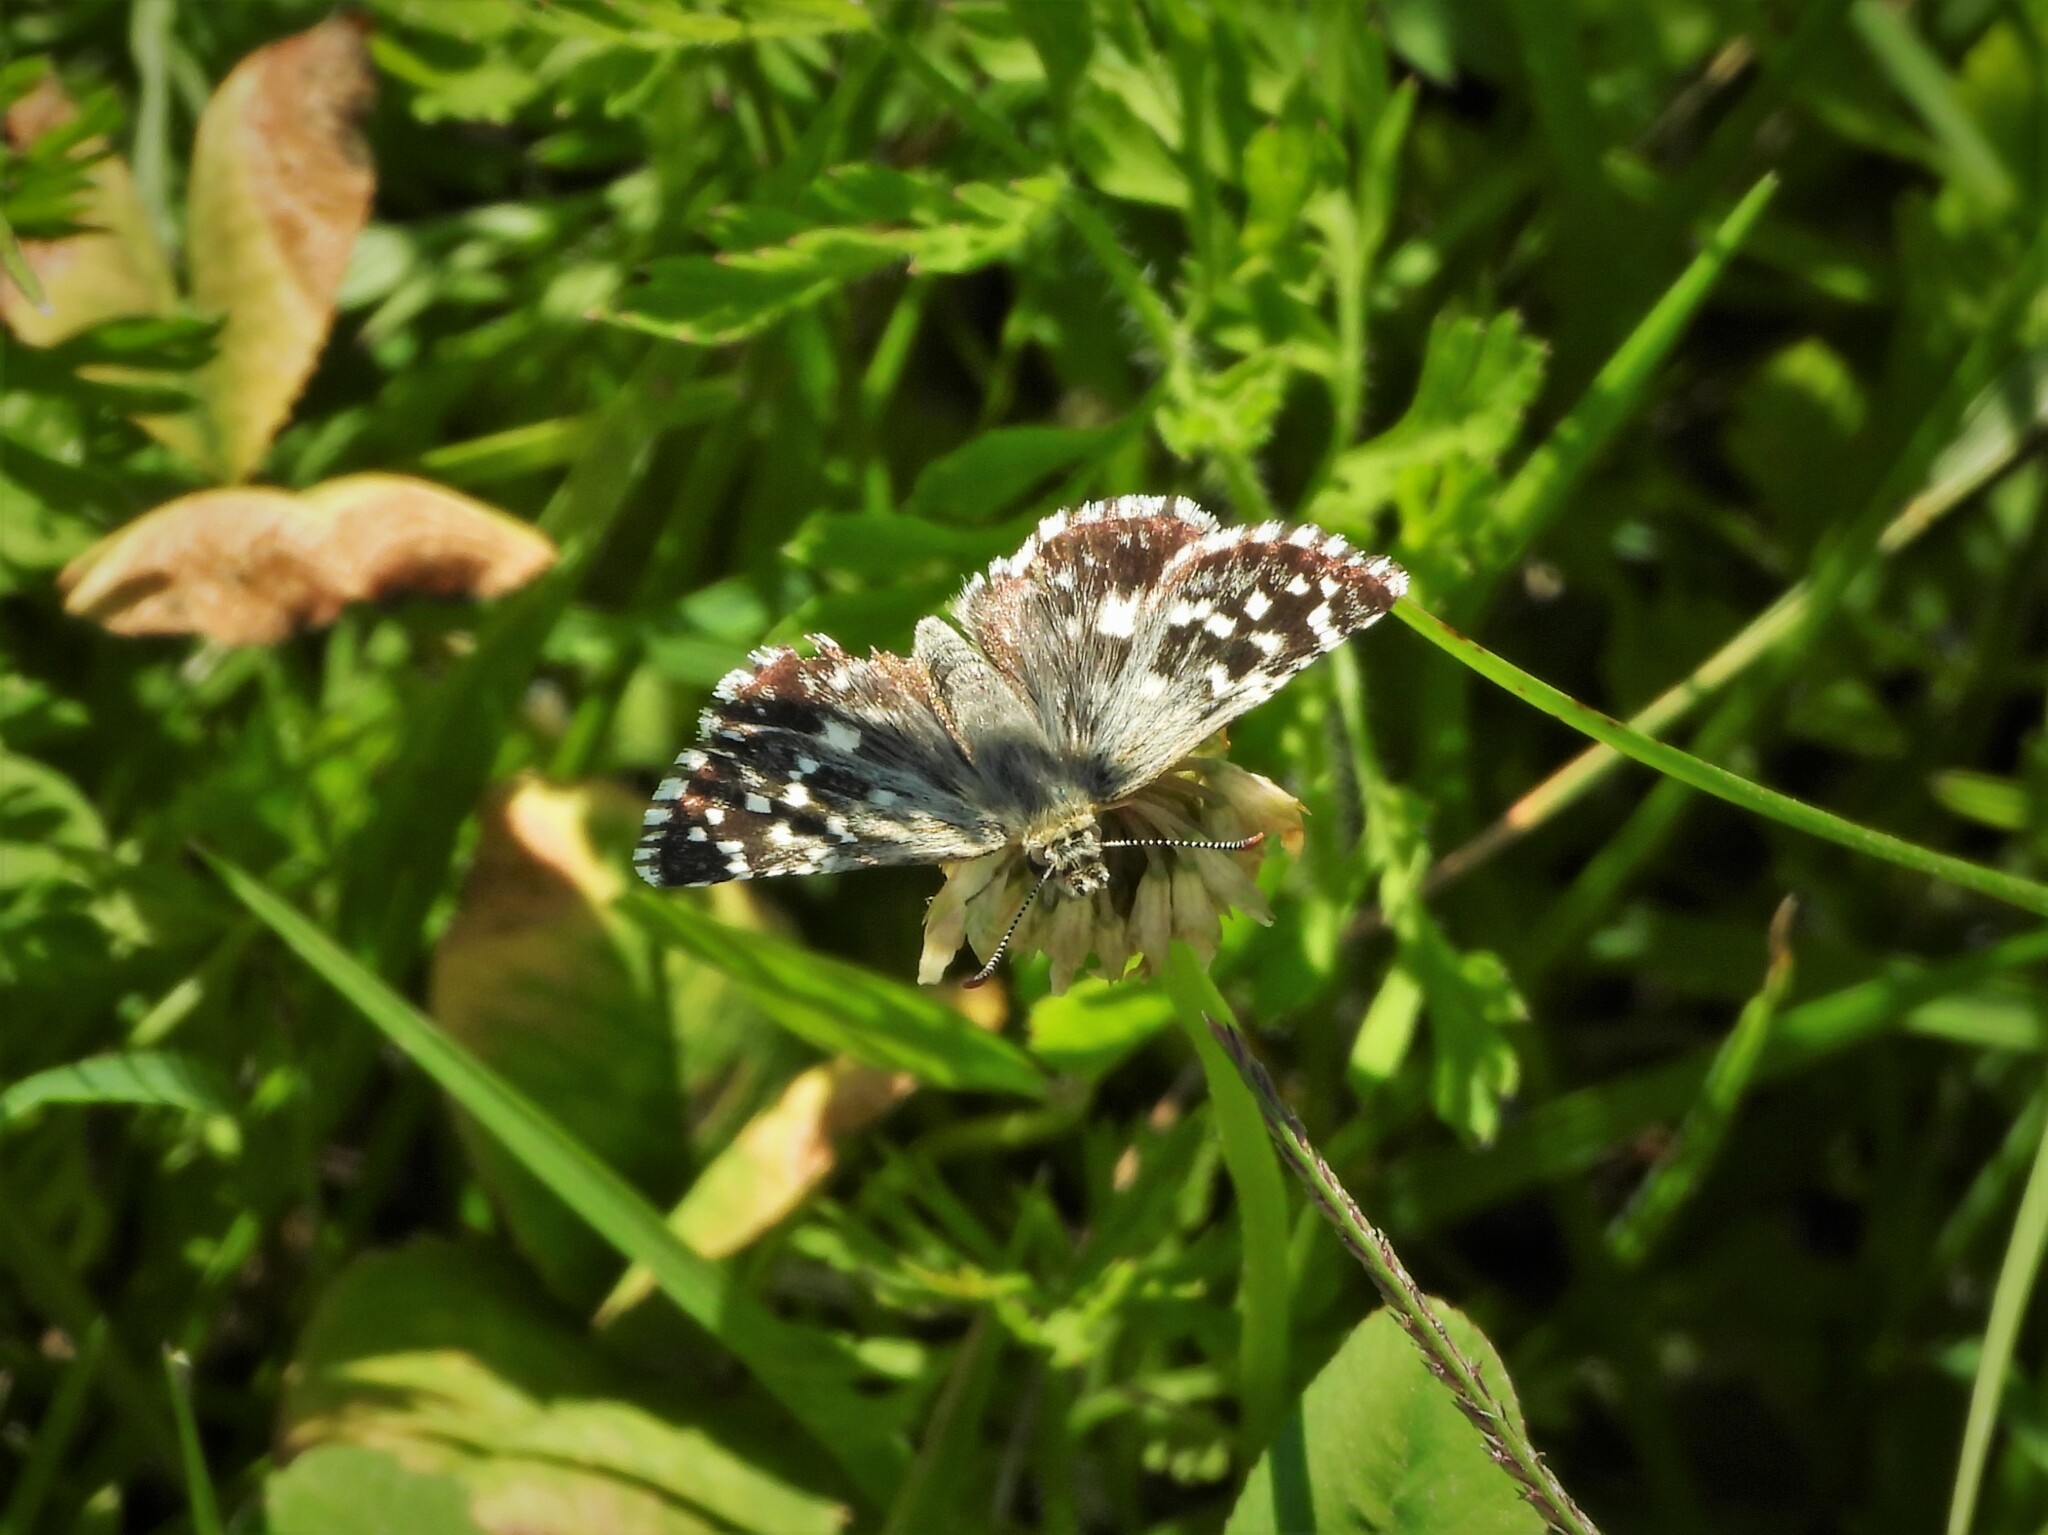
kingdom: Animalia
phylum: Arthropoda
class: Insecta
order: Lepidoptera
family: Hesperiidae
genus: Pyrgus
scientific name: Pyrgus malvoides
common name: Southern grizzled skipper
